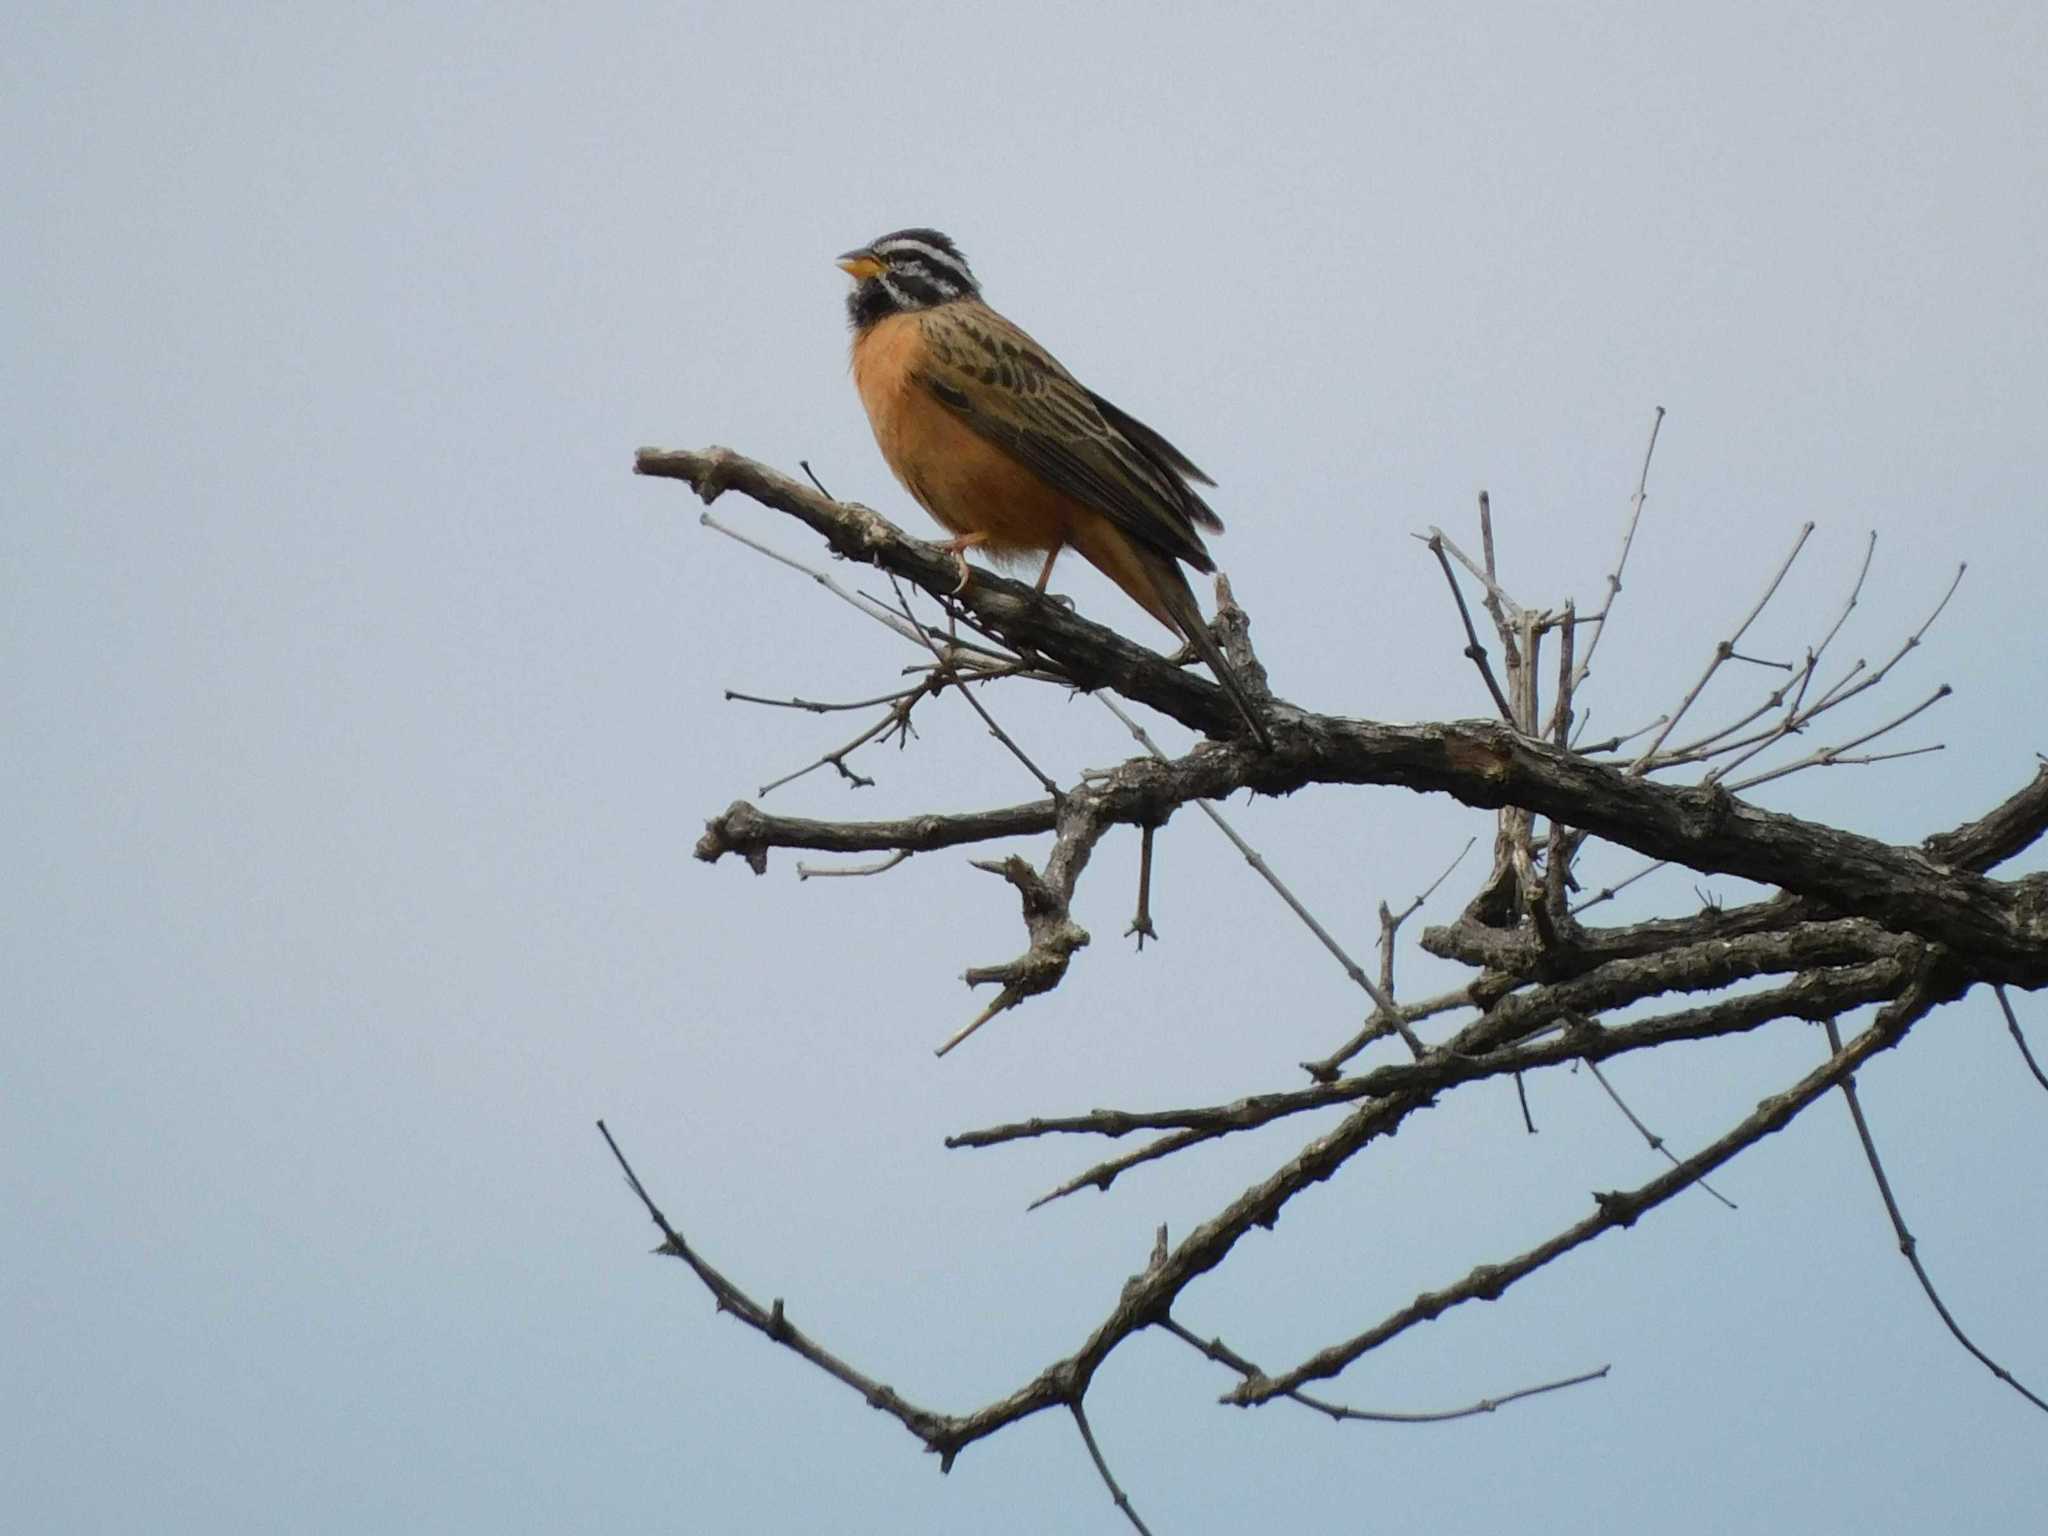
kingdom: Animalia
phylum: Chordata
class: Aves
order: Passeriformes
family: Emberizidae
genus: Emberiza
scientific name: Emberiza tahapisi
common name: Cinnamon-breasted bunting
